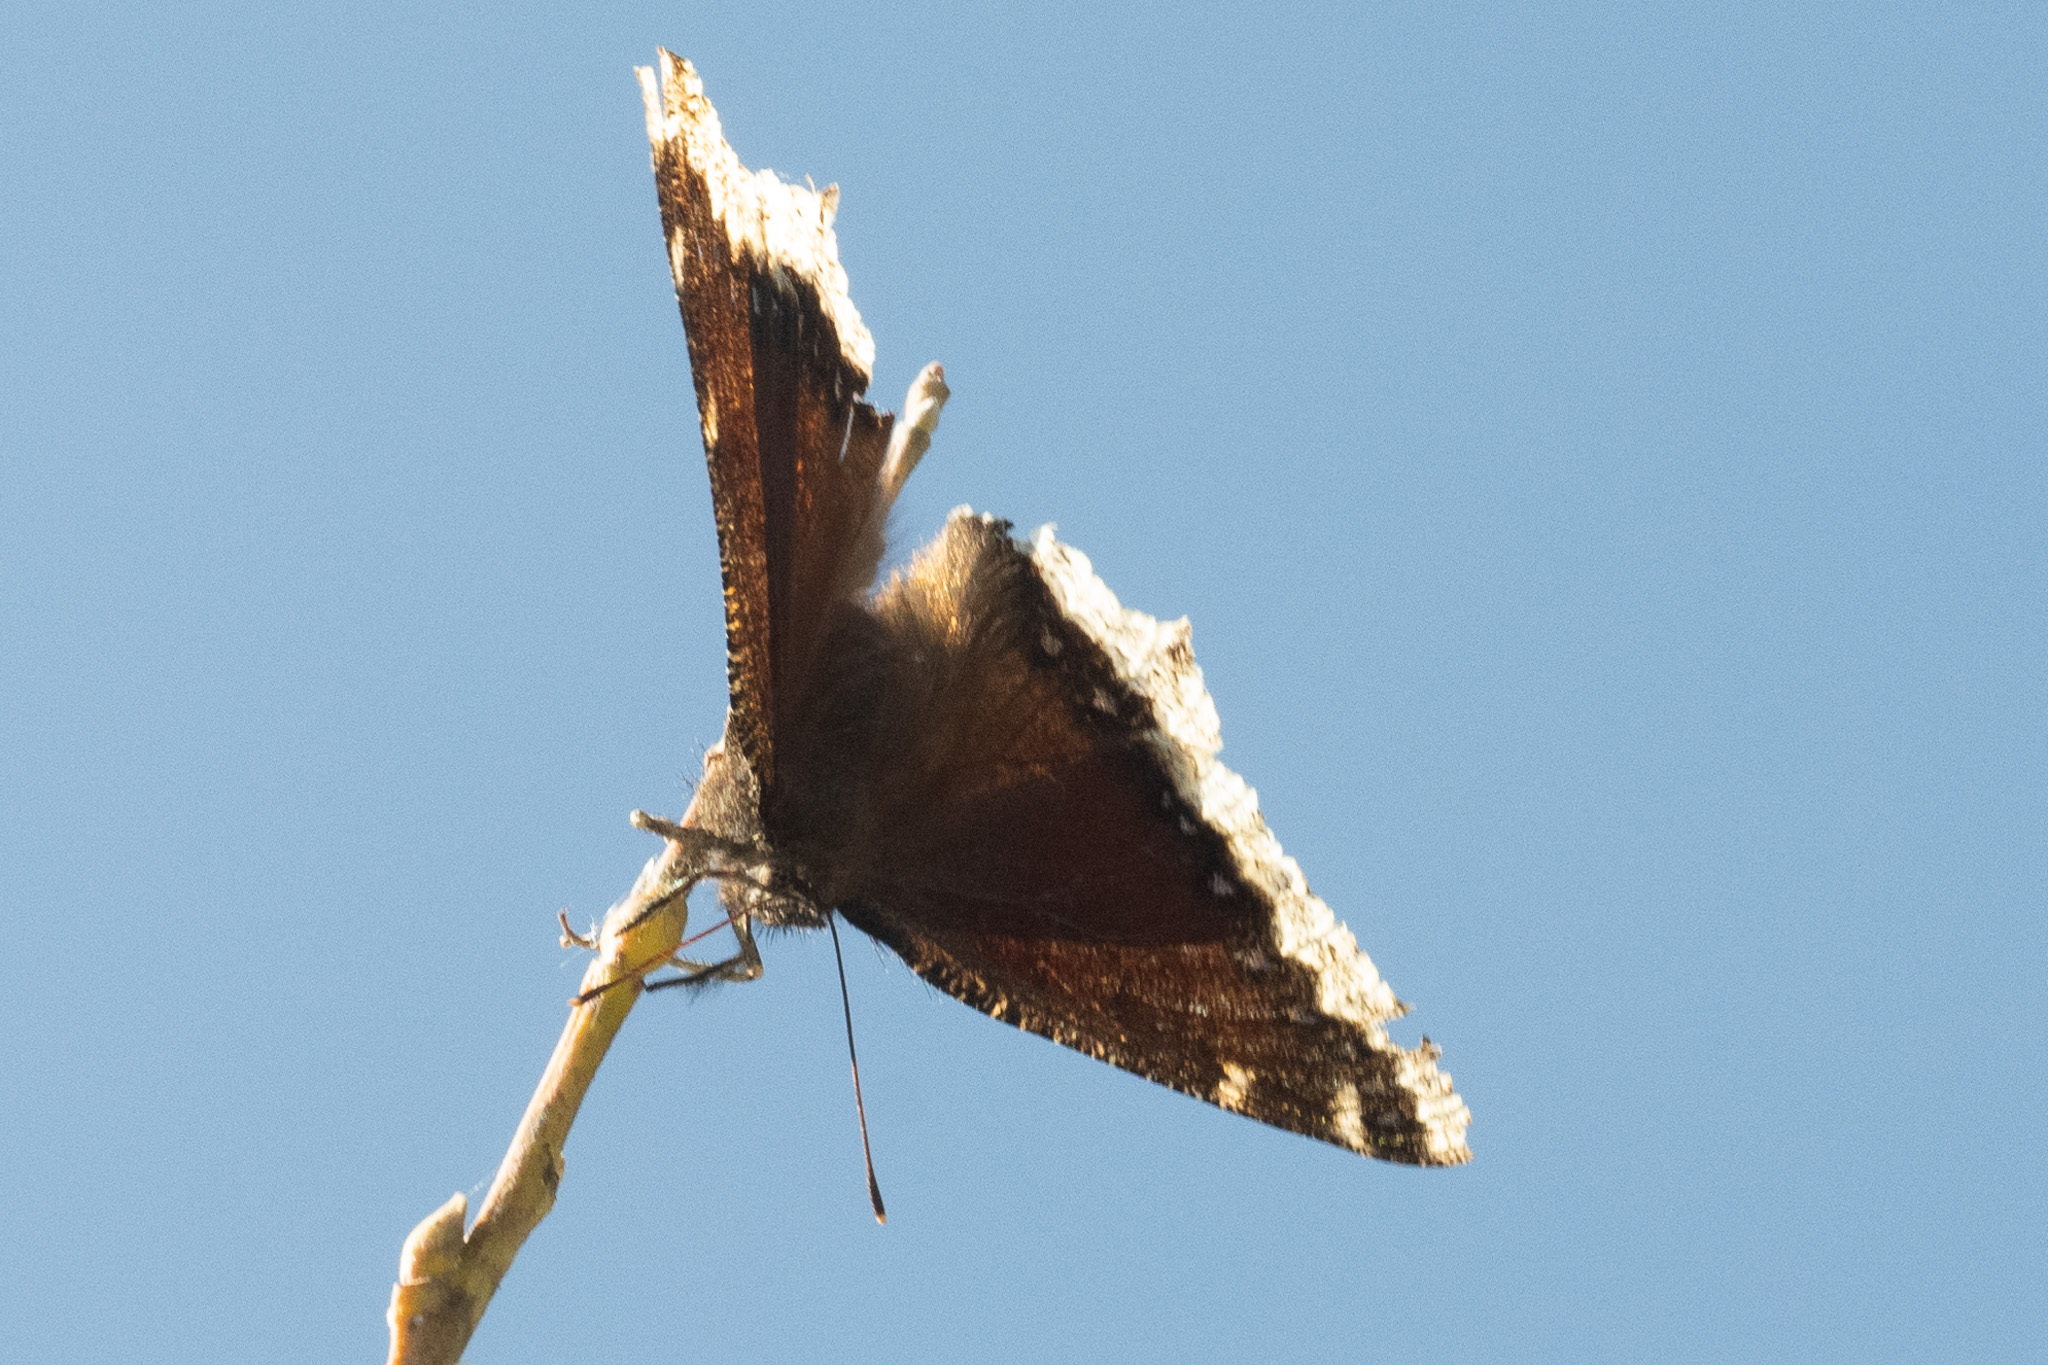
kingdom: Animalia
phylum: Arthropoda
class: Insecta
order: Lepidoptera
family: Nymphalidae
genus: Nymphalis
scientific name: Nymphalis antiopa
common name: Camberwell beauty
